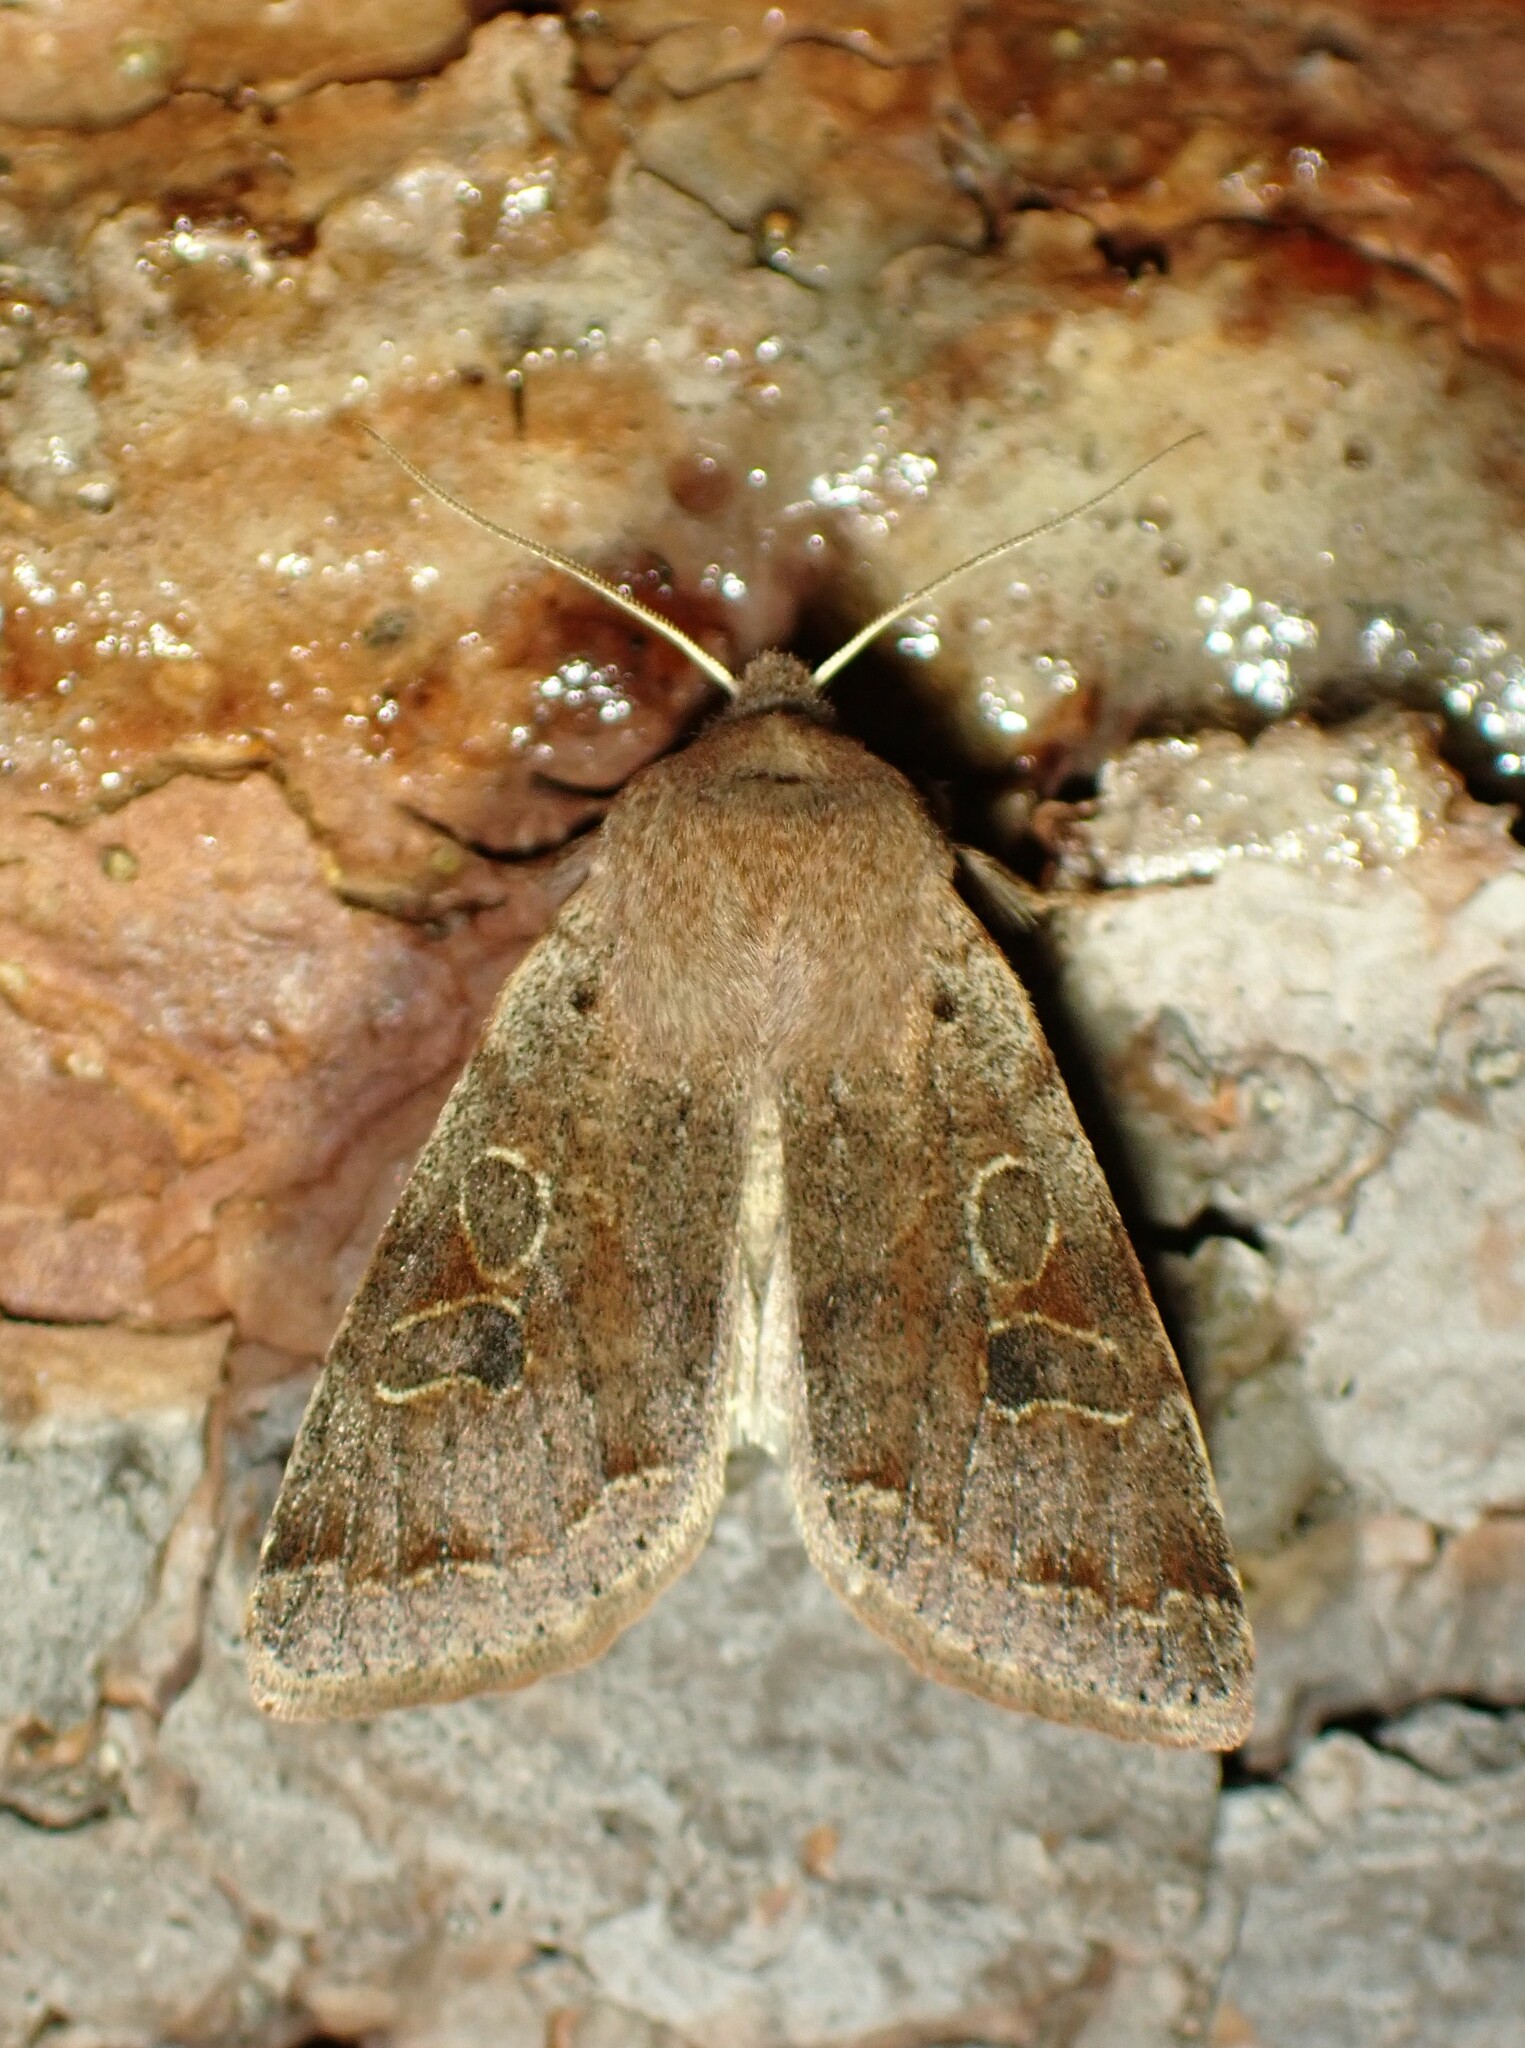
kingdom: Animalia
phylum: Arthropoda
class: Insecta
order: Lepidoptera
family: Noctuidae
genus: Orthosia
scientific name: Orthosia hibisci
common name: Green fruitworm
